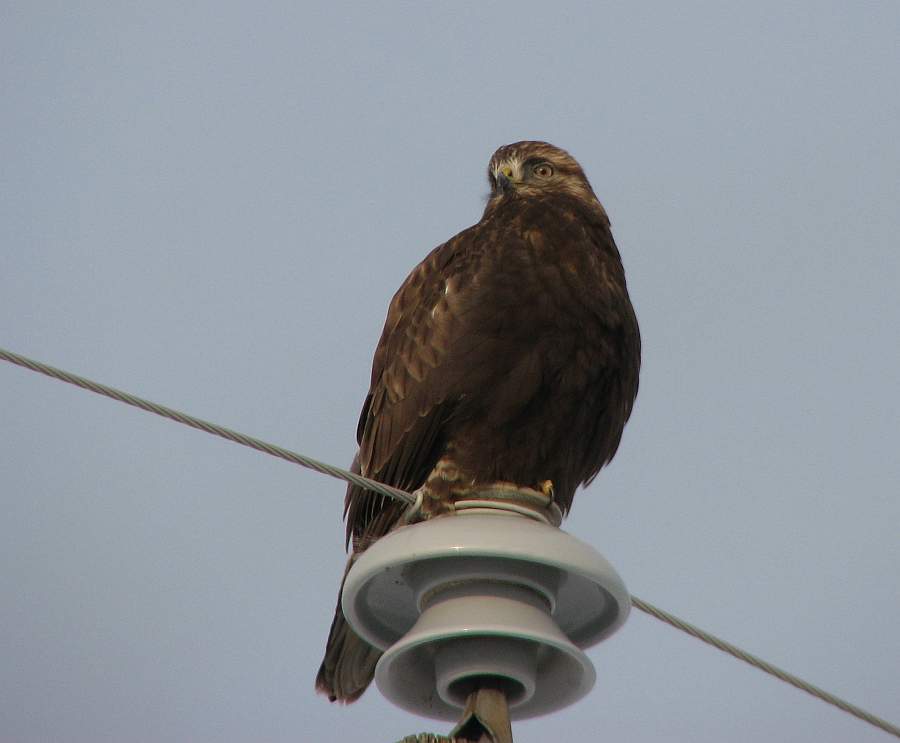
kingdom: Animalia
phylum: Chordata
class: Aves
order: Accipitriformes
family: Accipitridae
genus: Buteo
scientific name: Buteo lagopus
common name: Rough-legged buzzard
